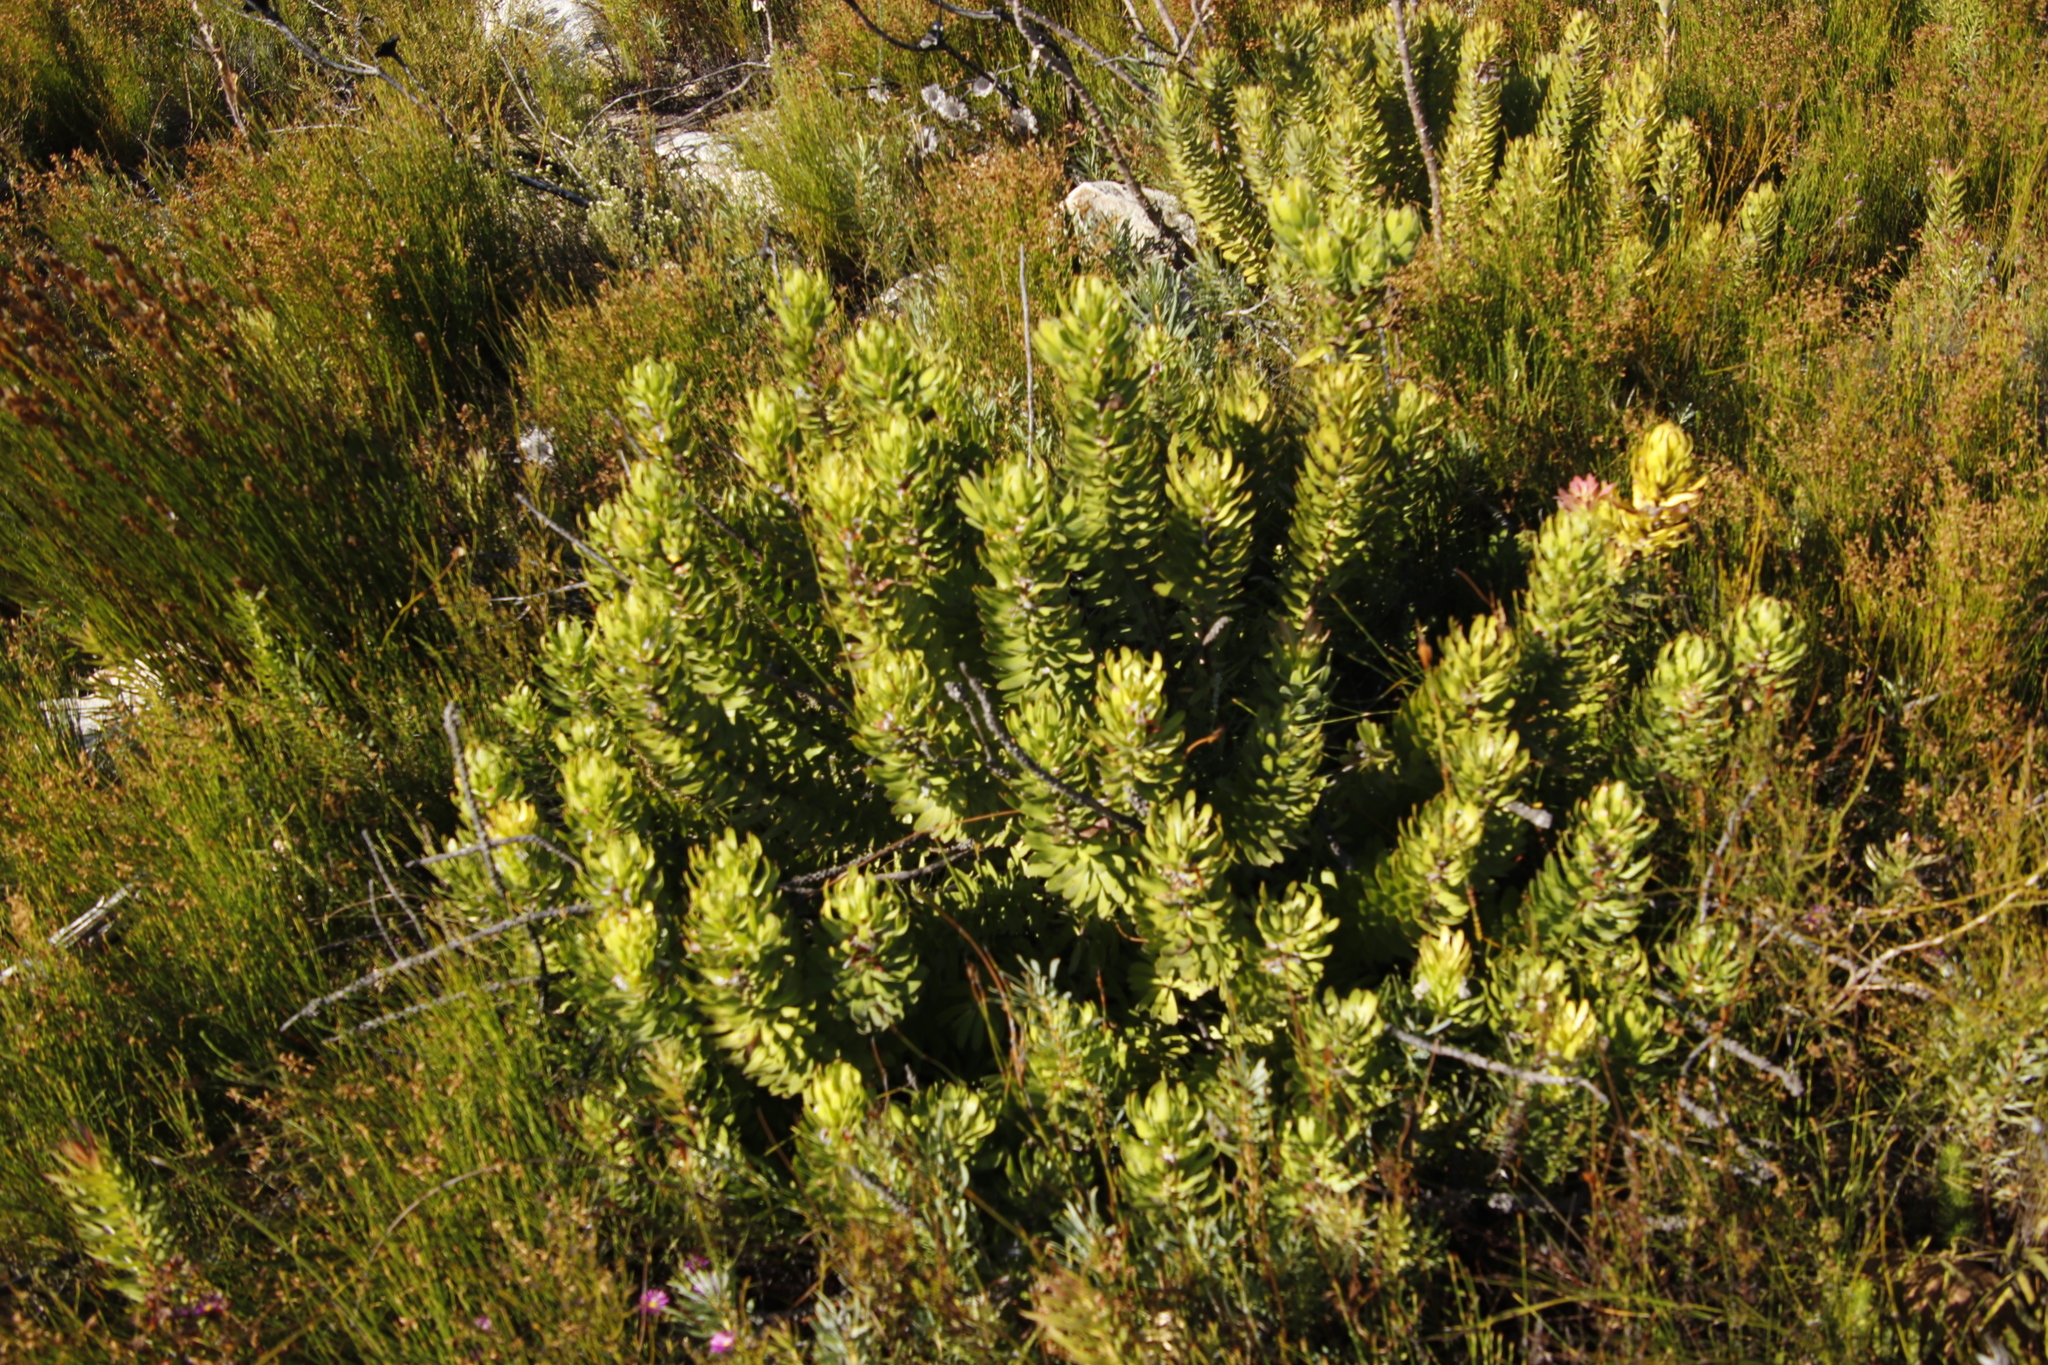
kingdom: Plantae
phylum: Tracheophyta
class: Magnoliopsida
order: Proteales
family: Proteaceae
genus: Mimetes
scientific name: Mimetes cucullatus
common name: Common pagoda
